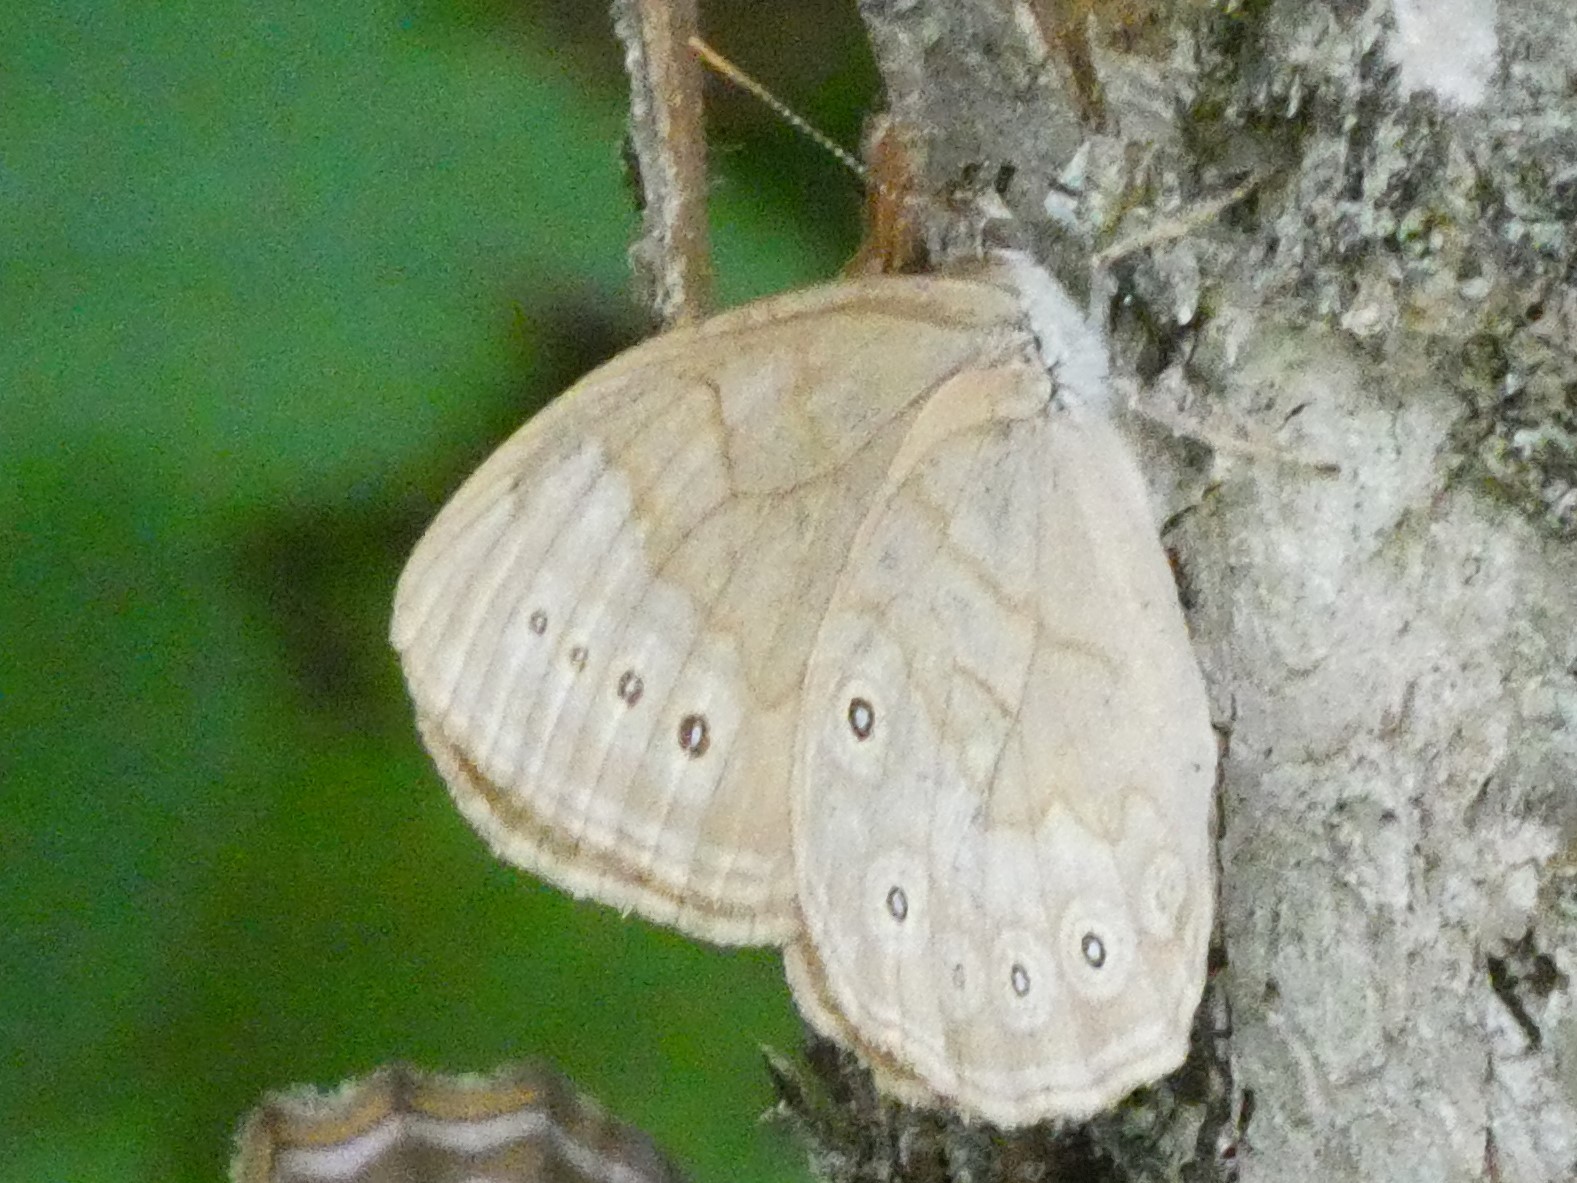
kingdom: Animalia
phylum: Arthropoda
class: Insecta
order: Lepidoptera
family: Nymphalidae
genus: Lethe
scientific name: Lethe eurydice
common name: Eyed brown
